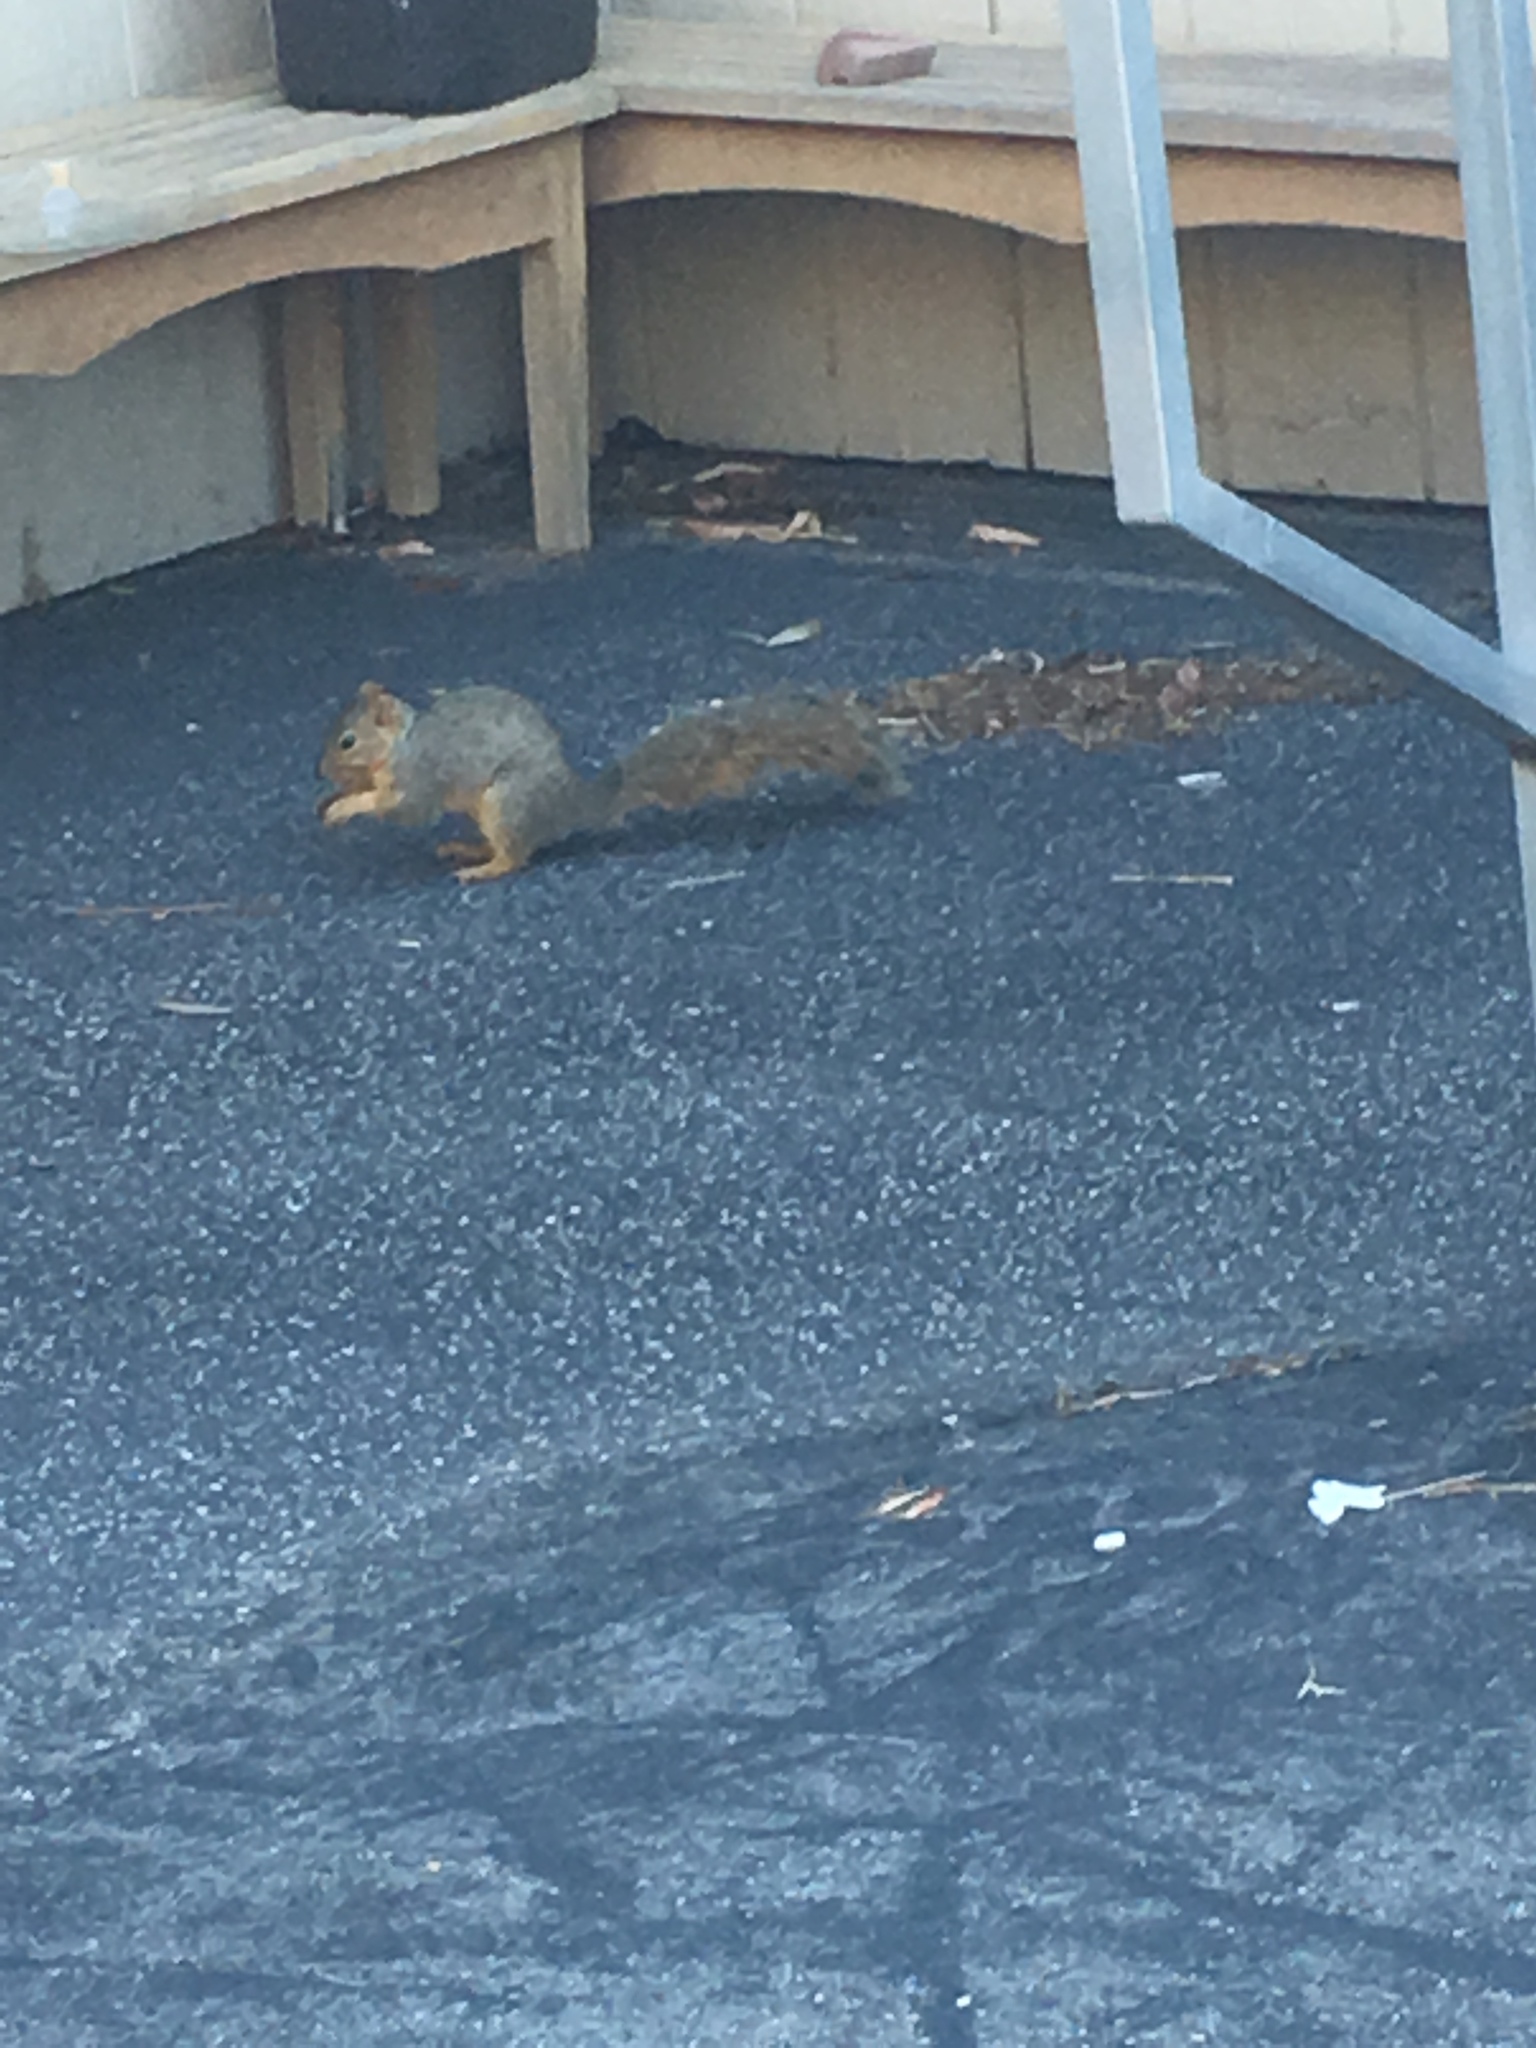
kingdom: Animalia
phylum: Chordata
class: Mammalia
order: Rodentia
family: Sciuridae
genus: Sciurus
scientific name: Sciurus niger
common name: Fox squirrel
